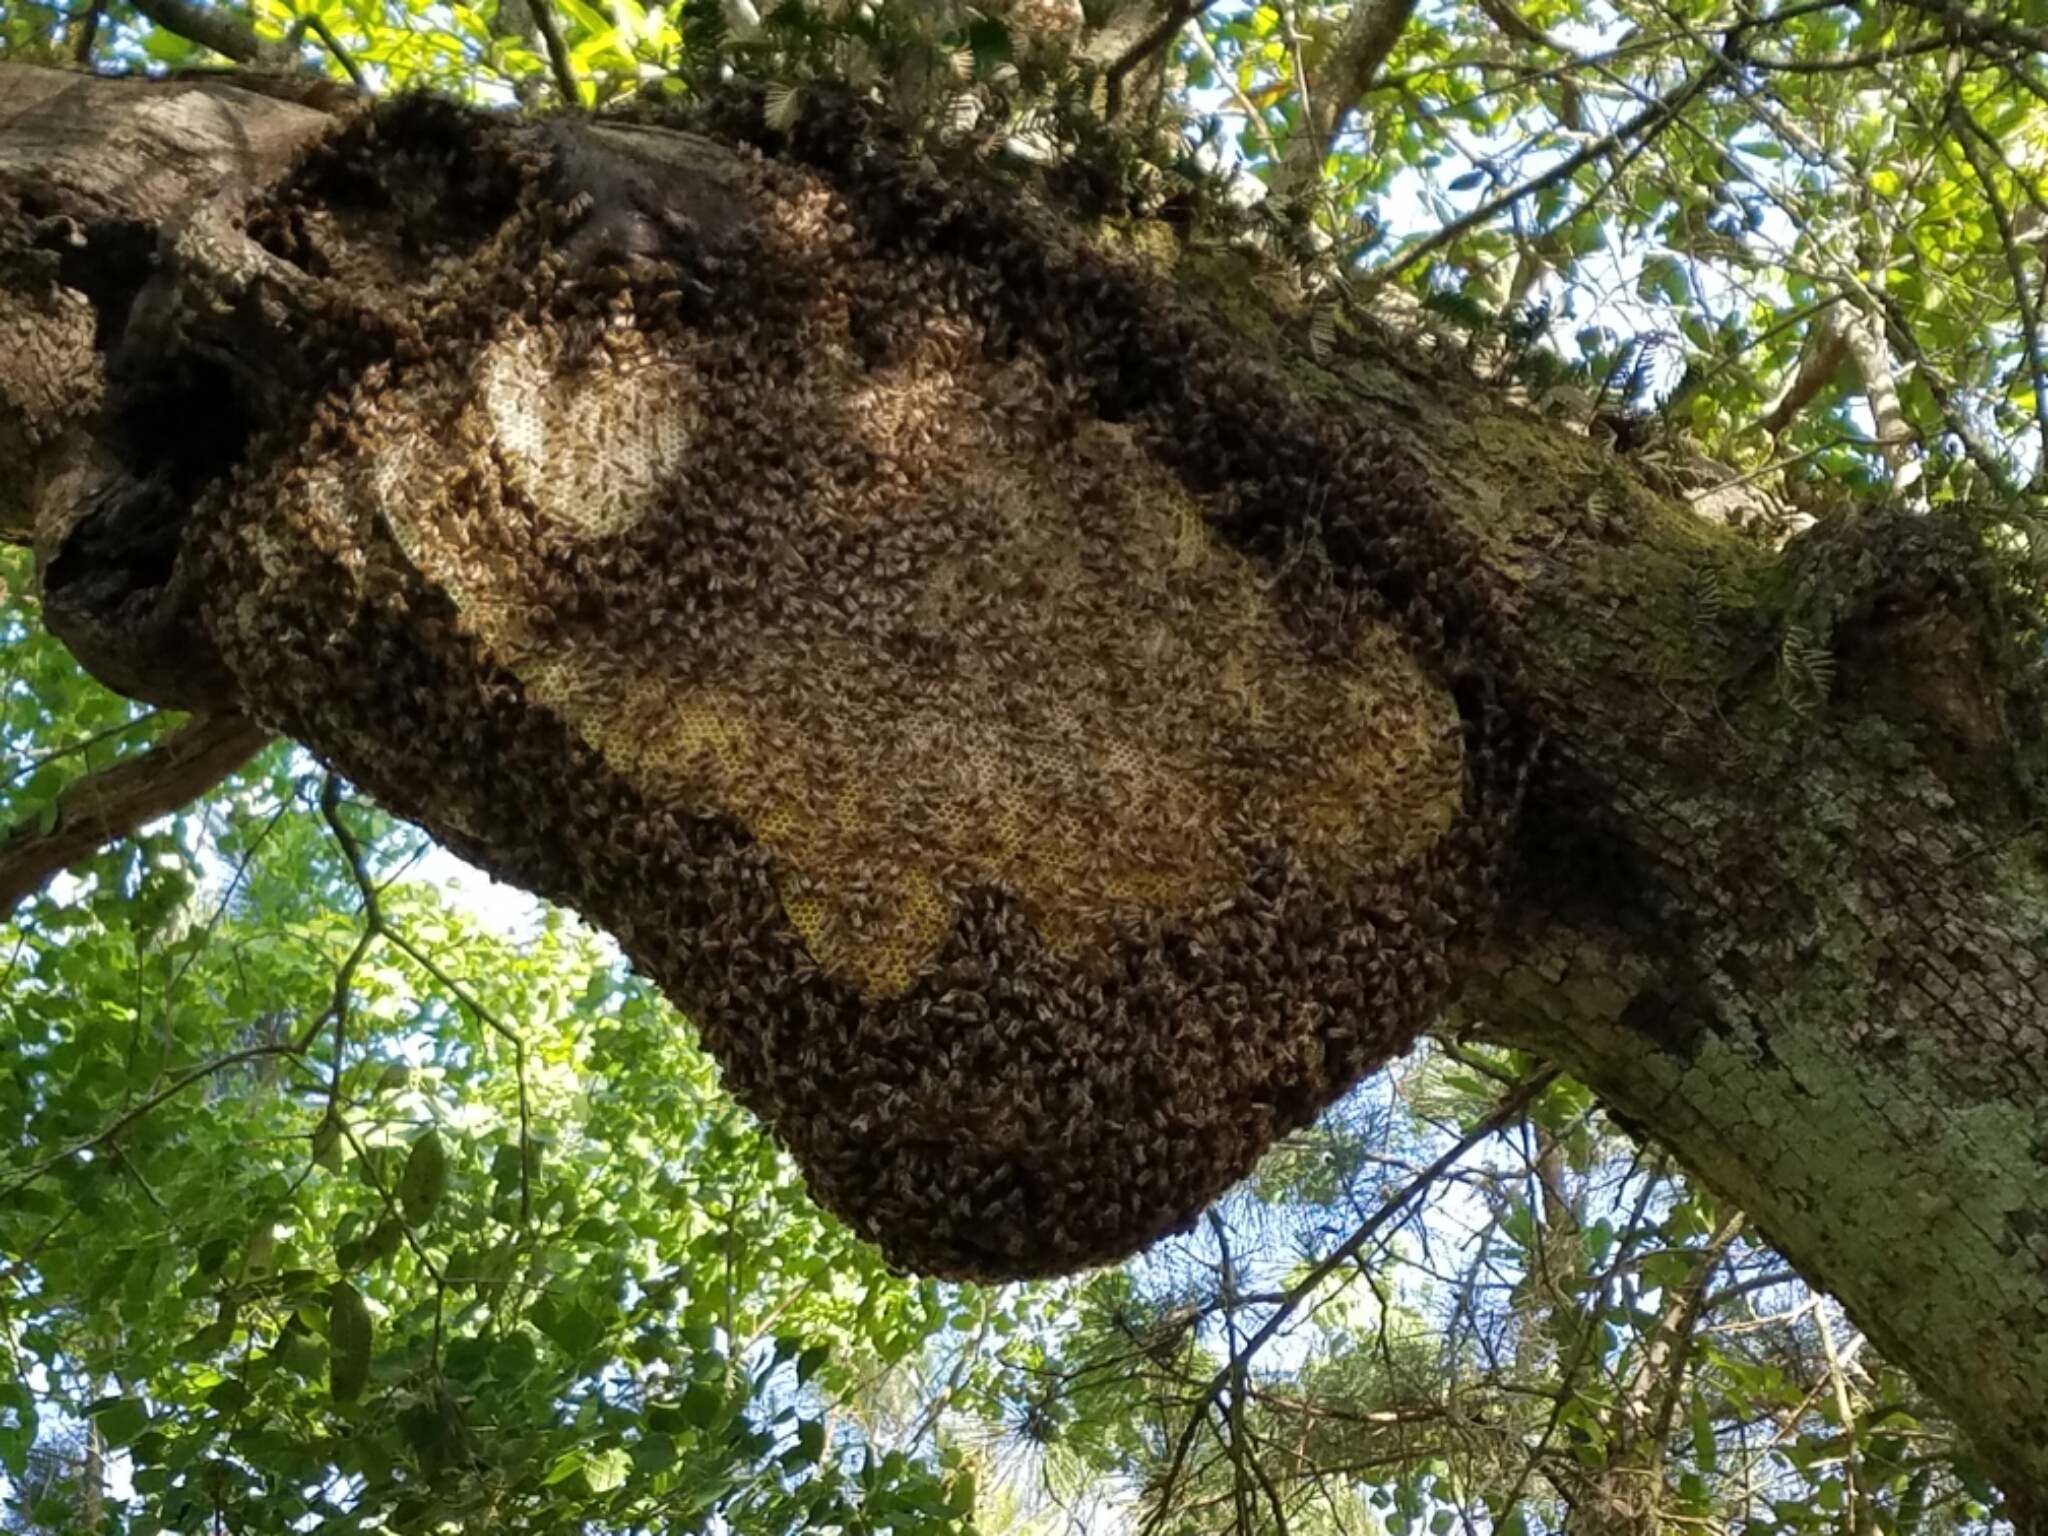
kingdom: Animalia
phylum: Arthropoda
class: Insecta
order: Hymenoptera
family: Apidae
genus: Apis
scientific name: Apis mellifera
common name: Honey bee
